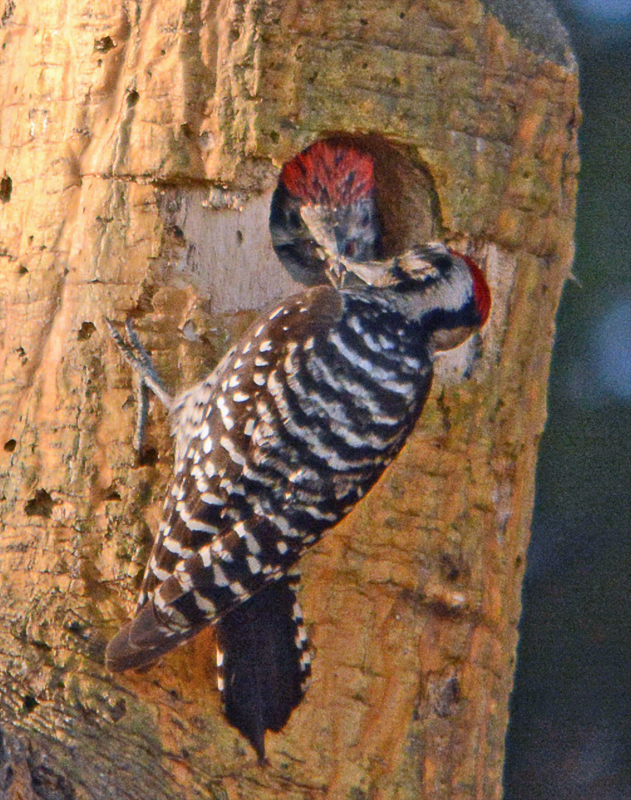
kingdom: Animalia
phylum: Chordata
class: Aves
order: Piciformes
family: Picidae
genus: Dryobates
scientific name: Dryobates scalaris
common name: Ladder-backed woodpecker
